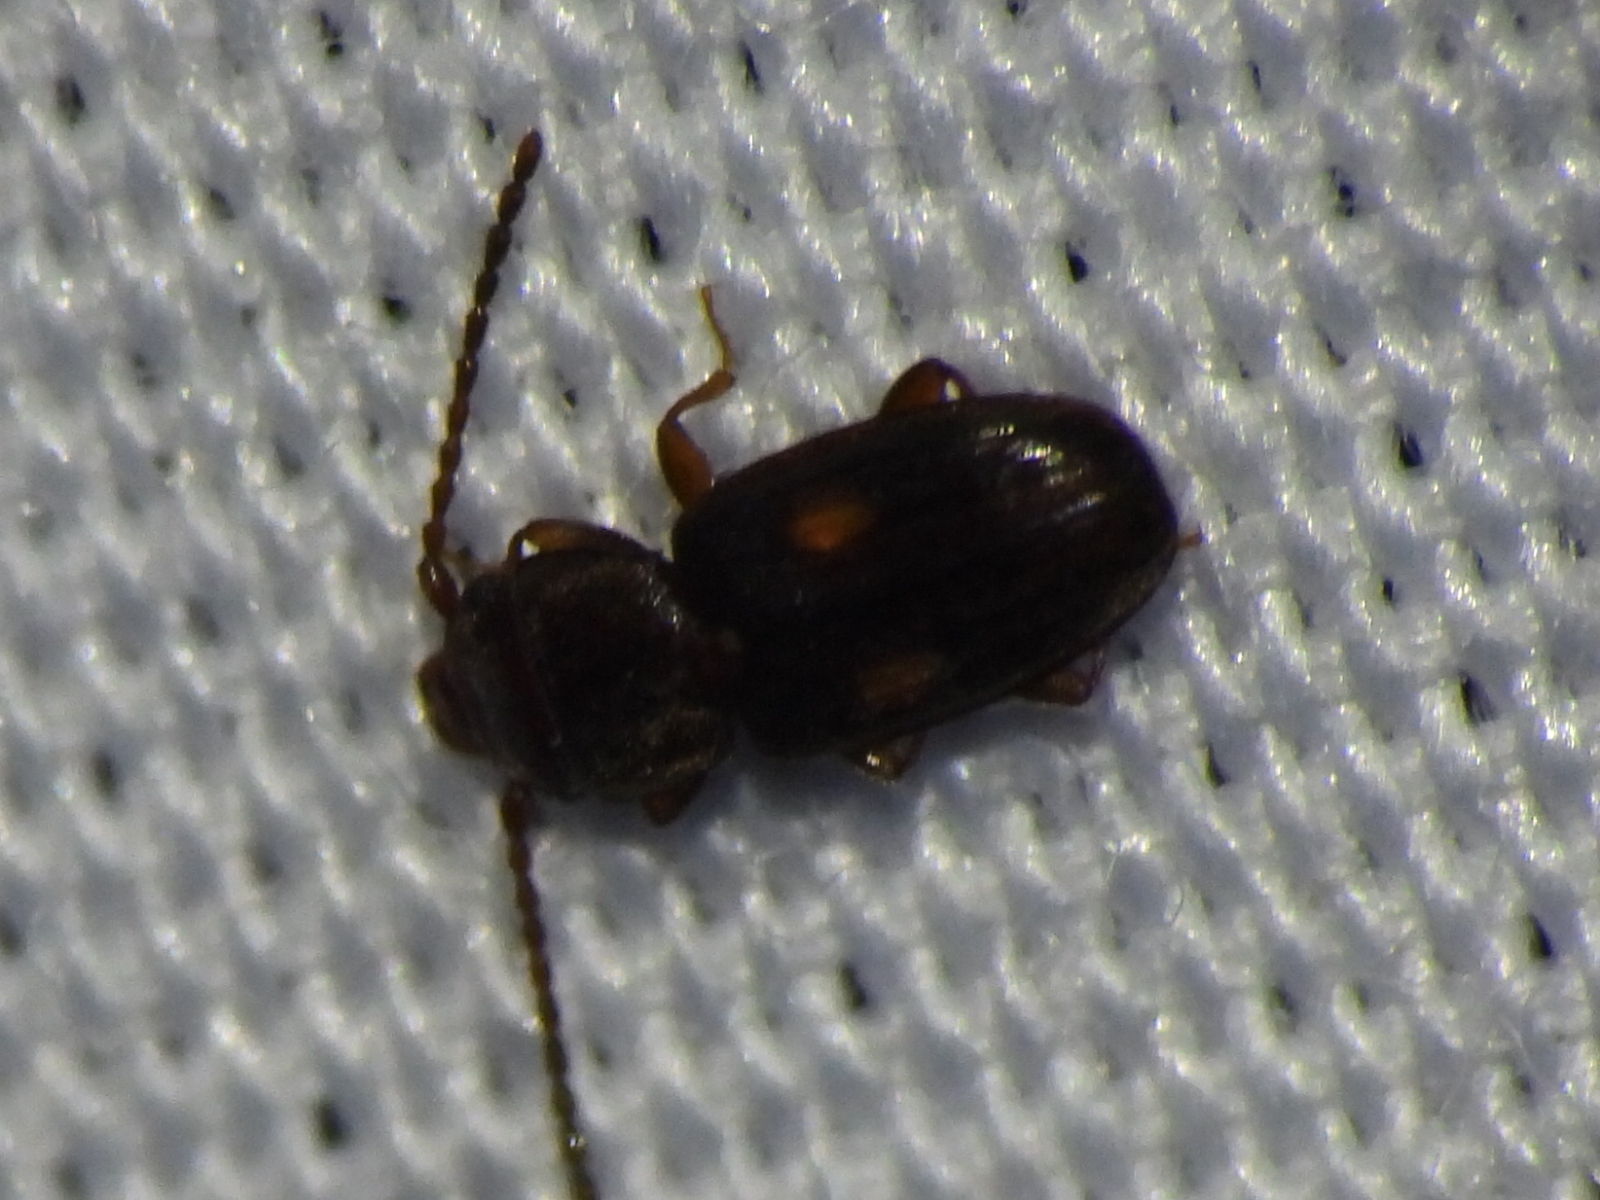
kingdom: Animalia
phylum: Arthropoda
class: Insecta
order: Coleoptera
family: Laemophloeidae
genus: Laemophloeus
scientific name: Laemophloeus biguttatus
